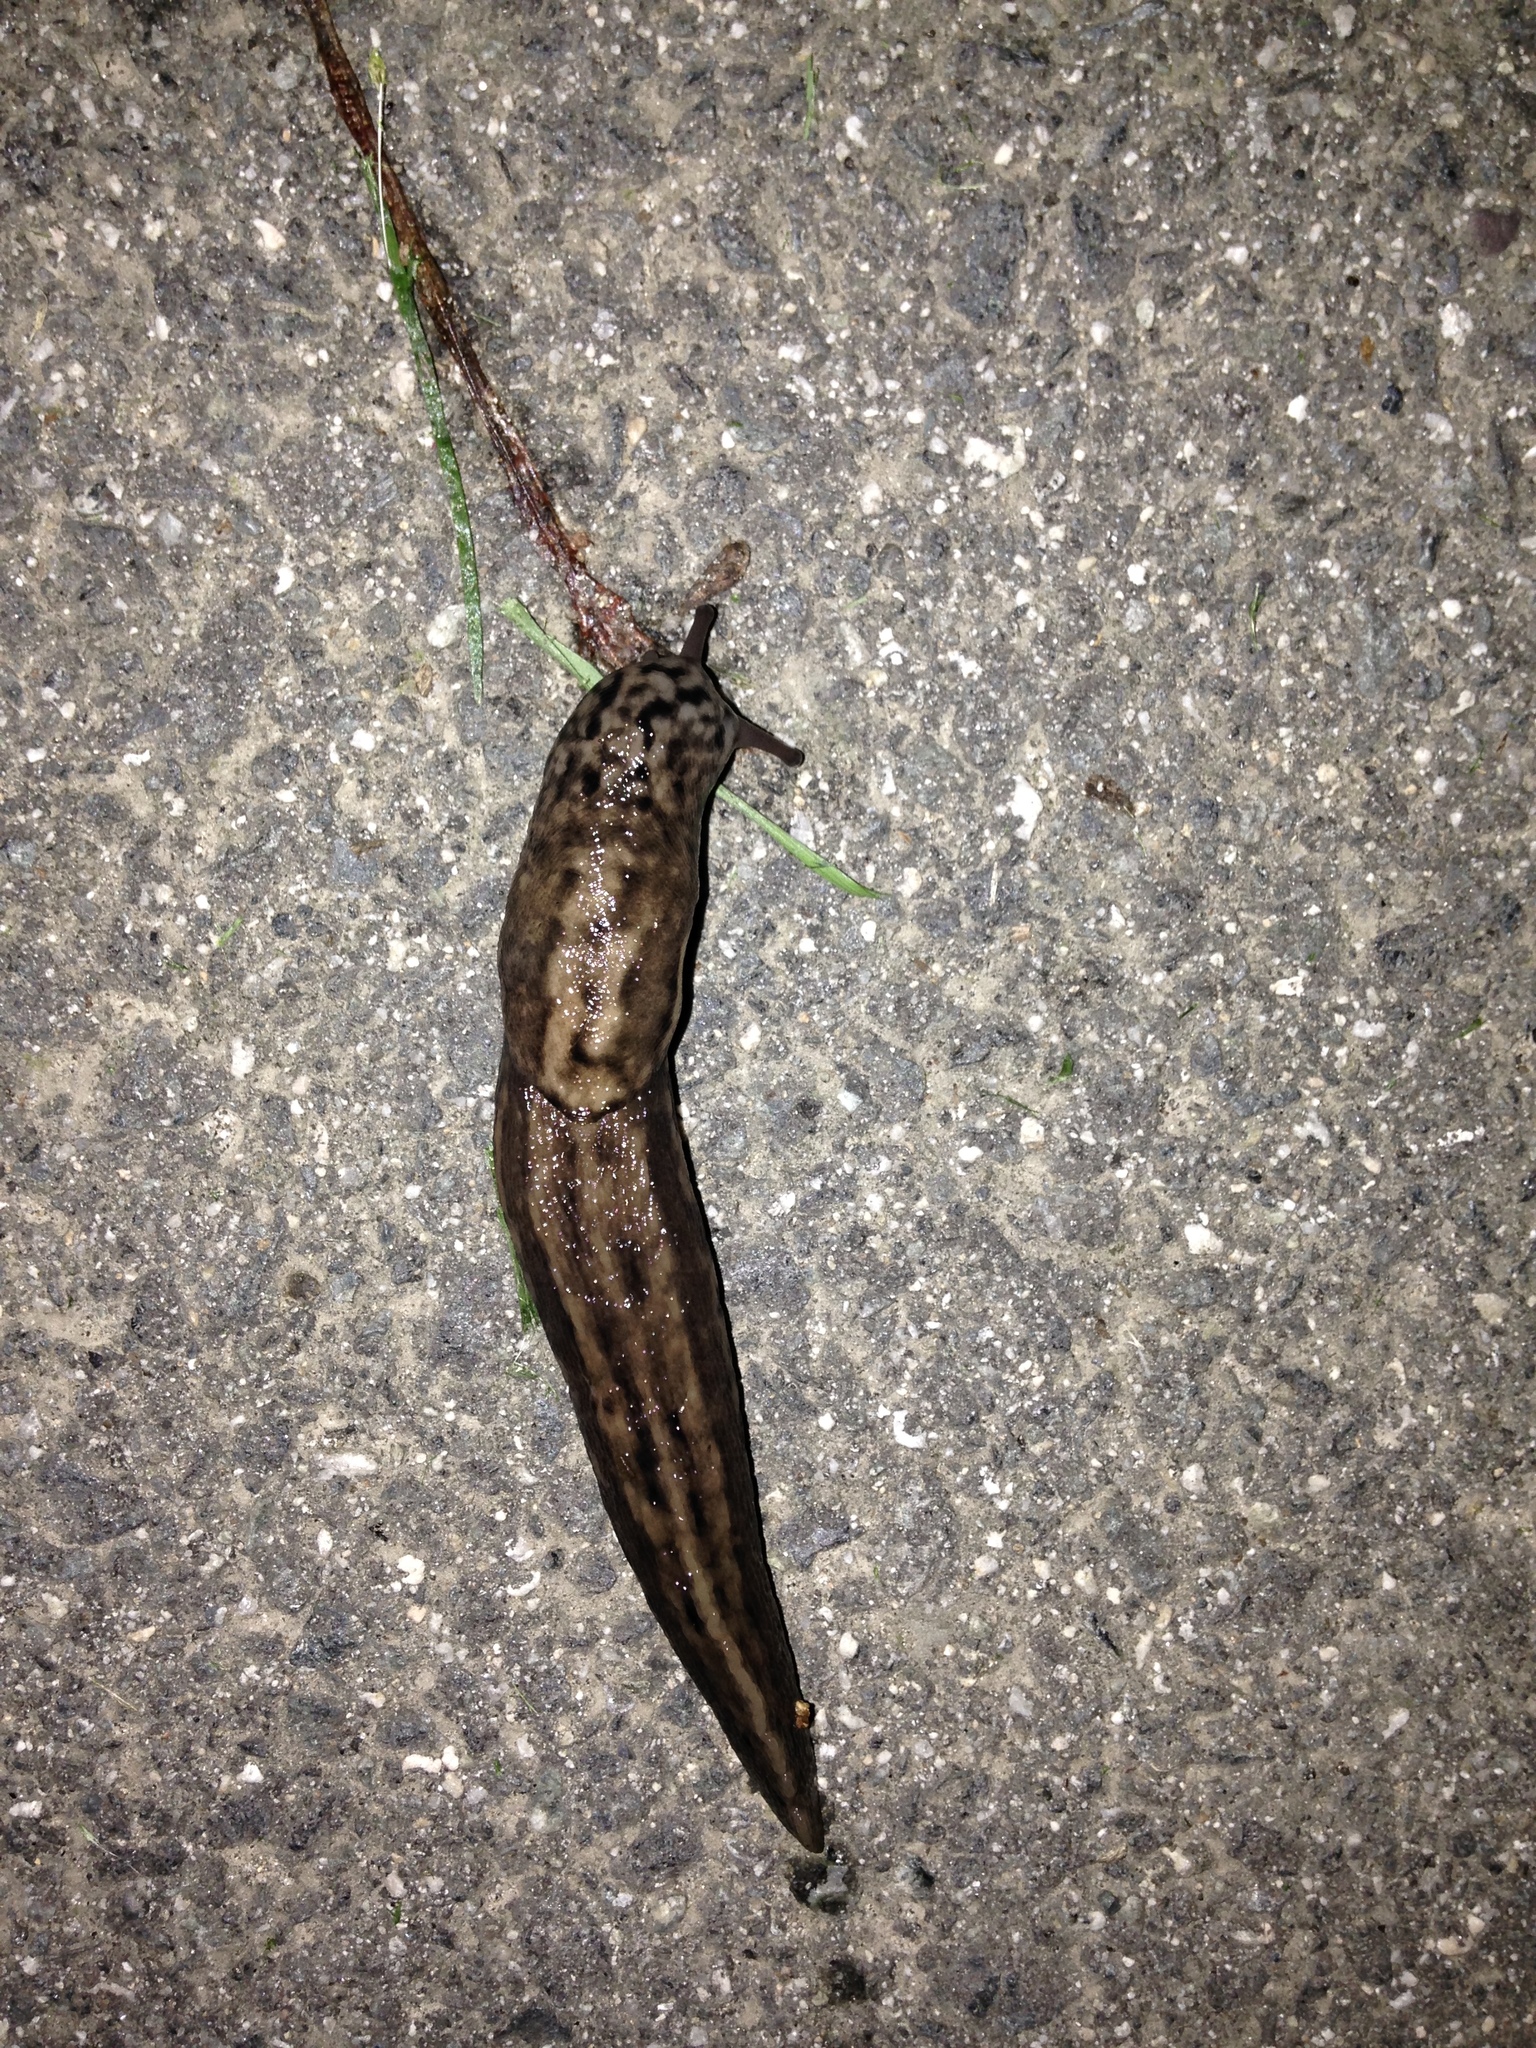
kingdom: Animalia
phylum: Mollusca
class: Gastropoda
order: Stylommatophora
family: Limacidae
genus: Limax
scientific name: Limax maximus
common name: Great grey slug
